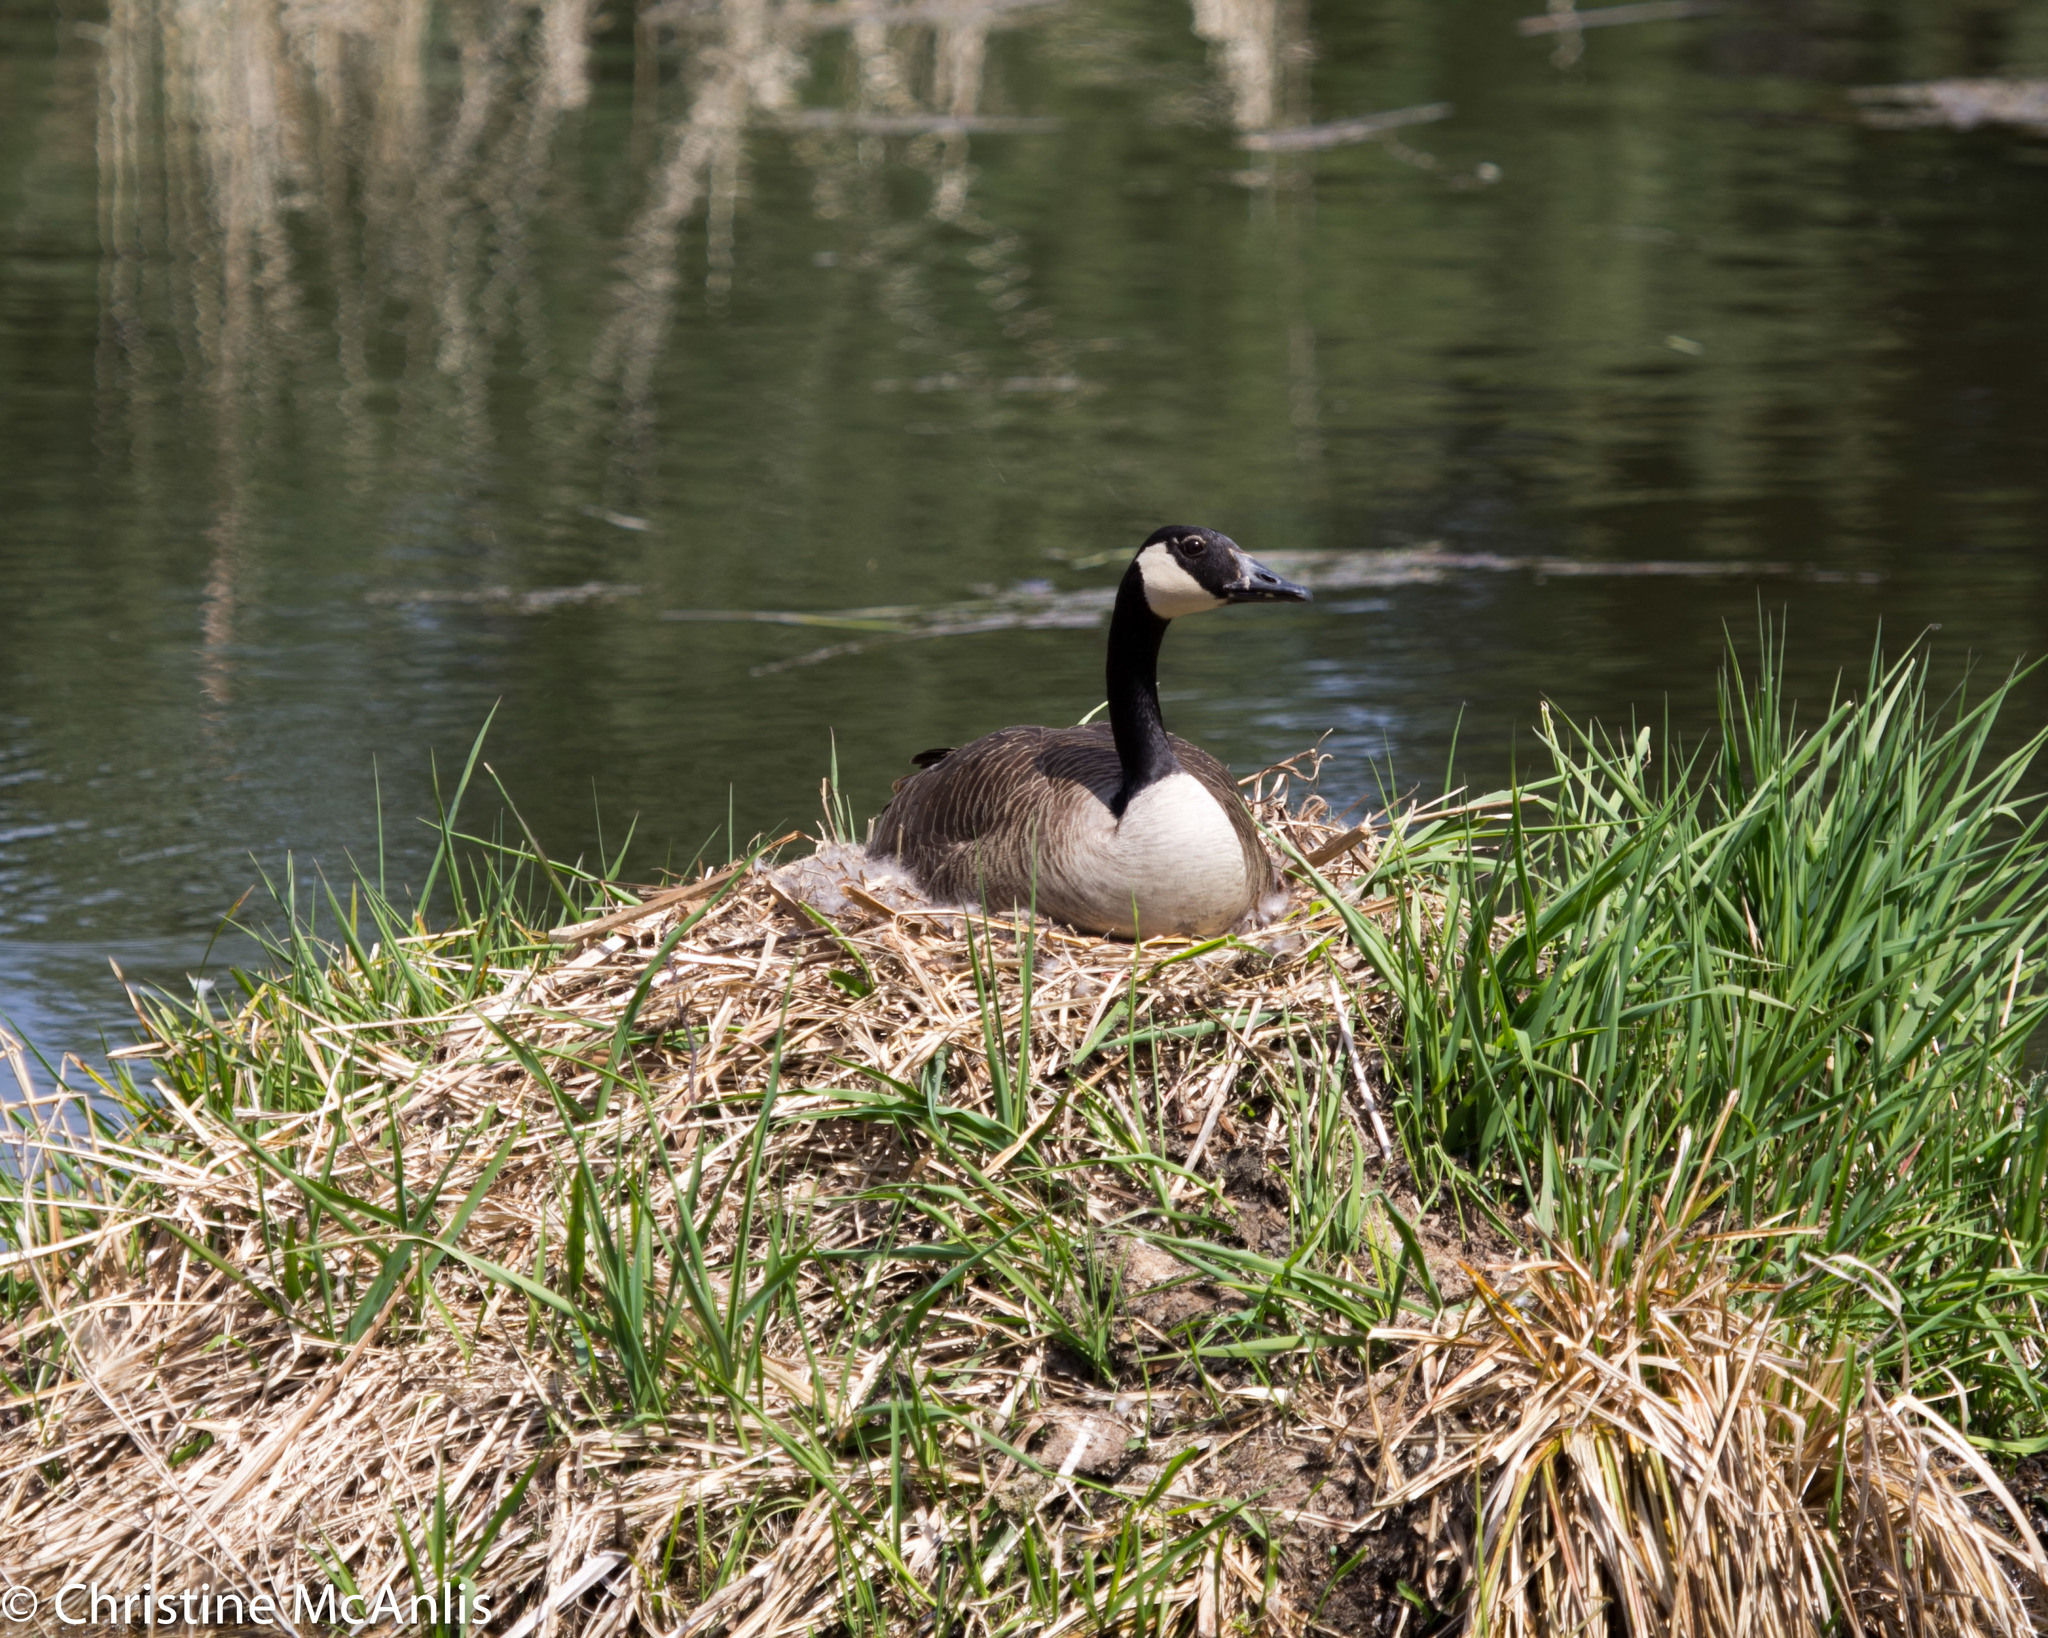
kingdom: Animalia
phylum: Chordata
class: Aves
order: Anseriformes
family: Anatidae
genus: Branta
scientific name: Branta canadensis
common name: Canada goose
